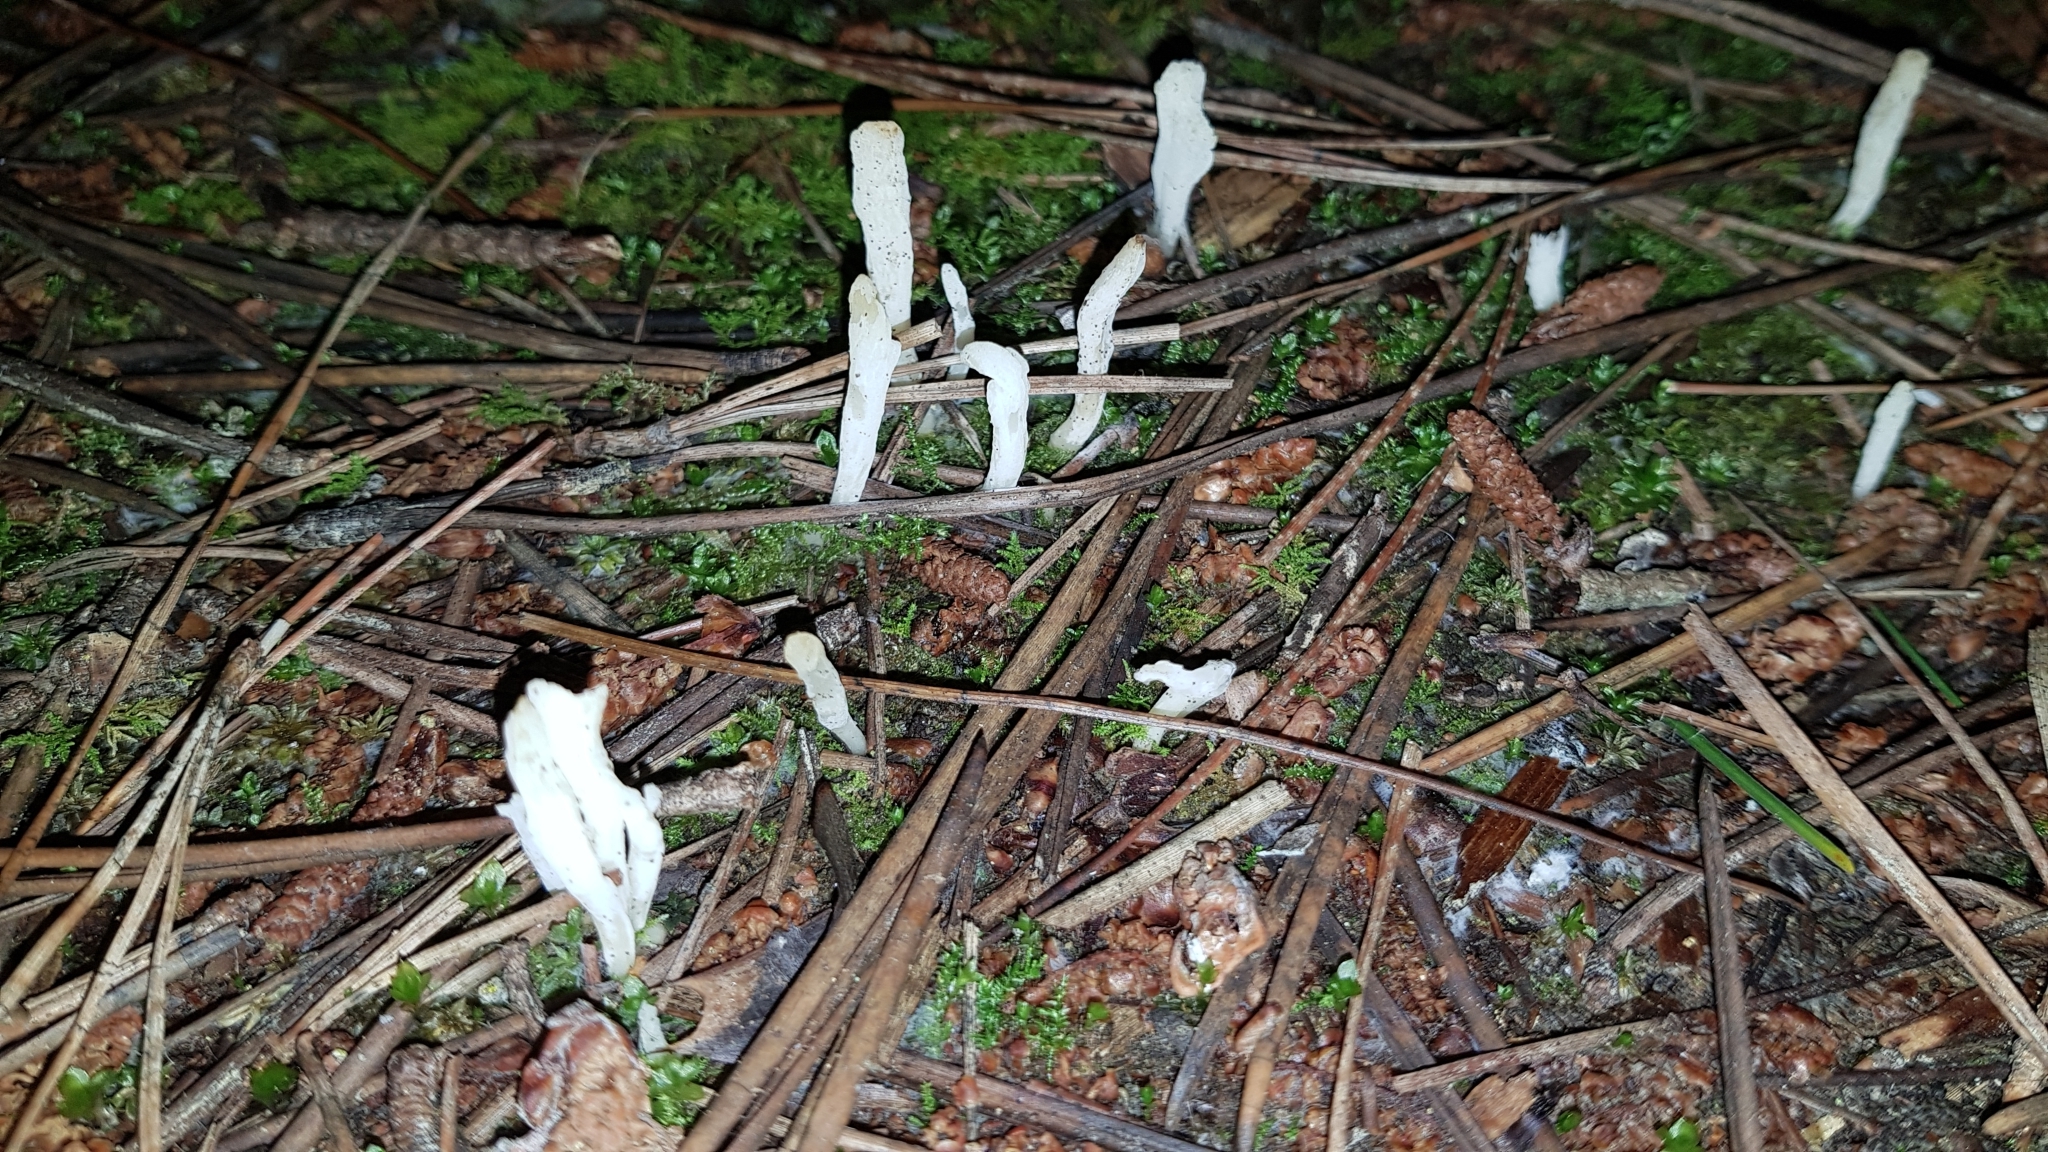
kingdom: Fungi
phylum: Basidiomycota
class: Agaricomycetes
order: Cantharellales
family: Hydnaceae
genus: Clavulina
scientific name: Clavulina rugosa
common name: Wrinkled club
